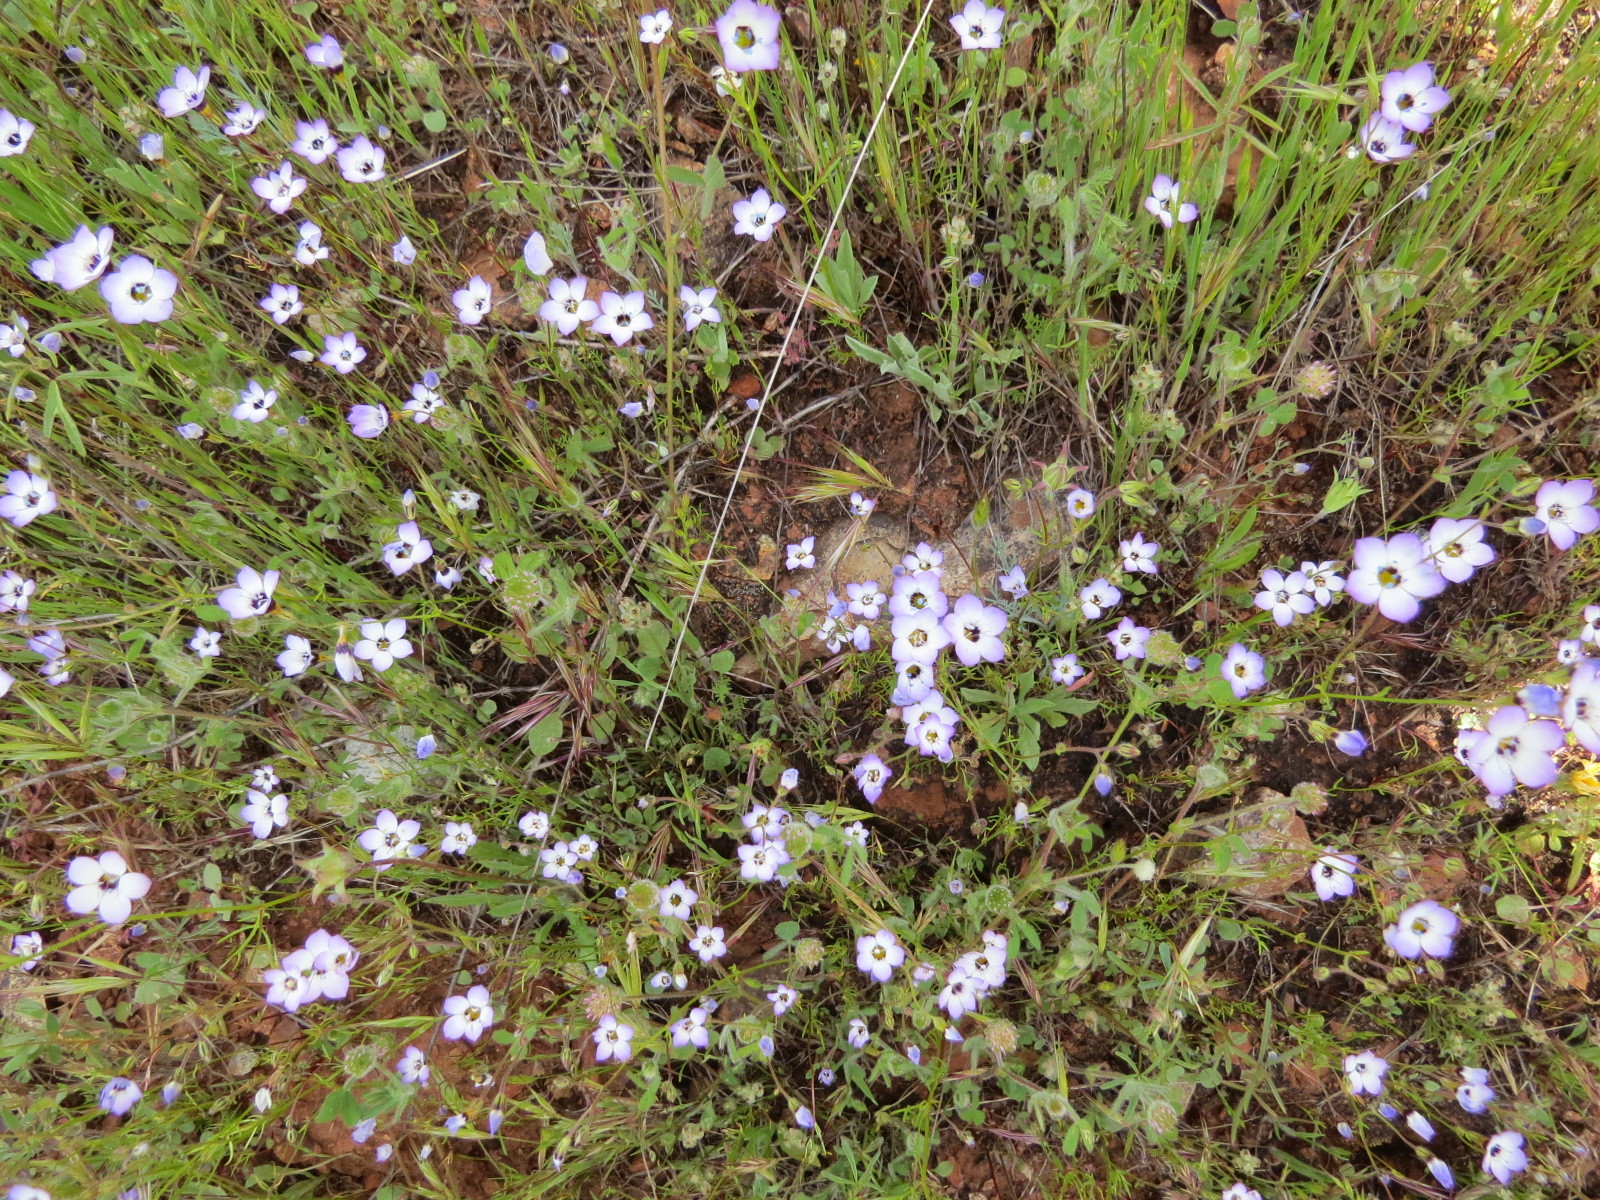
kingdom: Plantae
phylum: Tracheophyta
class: Magnoliopsida
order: Ericales
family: Polemoniaceae
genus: Gilia
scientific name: Gilia tricolor
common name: Bird's-eyes
